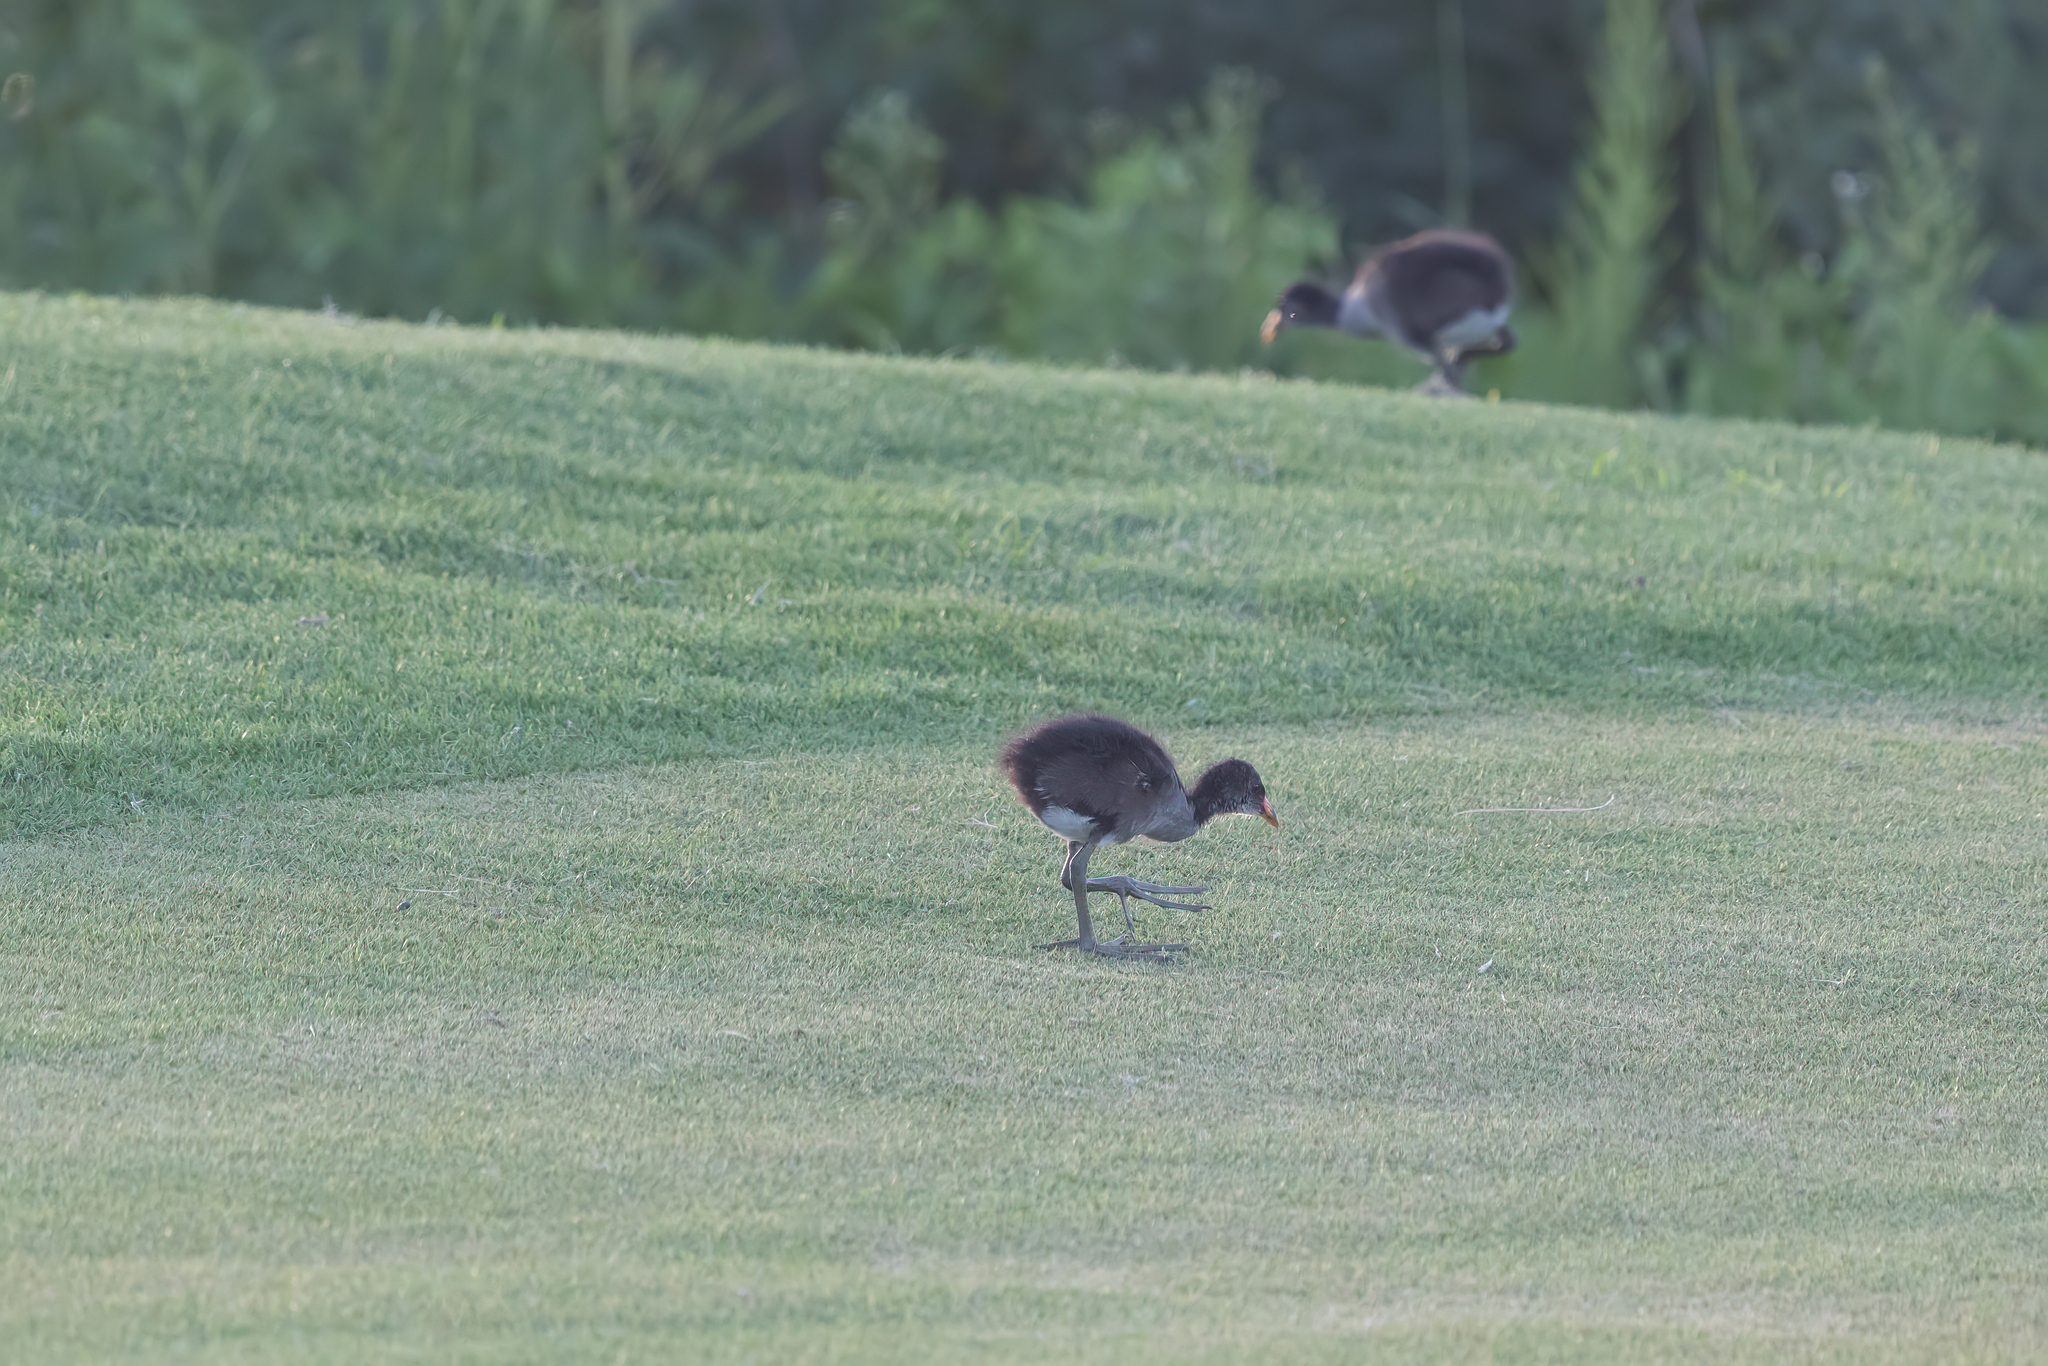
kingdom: Animalia
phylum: Chordata
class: Aves
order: Gruiformes
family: Rallidae
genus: Gallinula
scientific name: Gallinula chloropus
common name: Common moorhen
